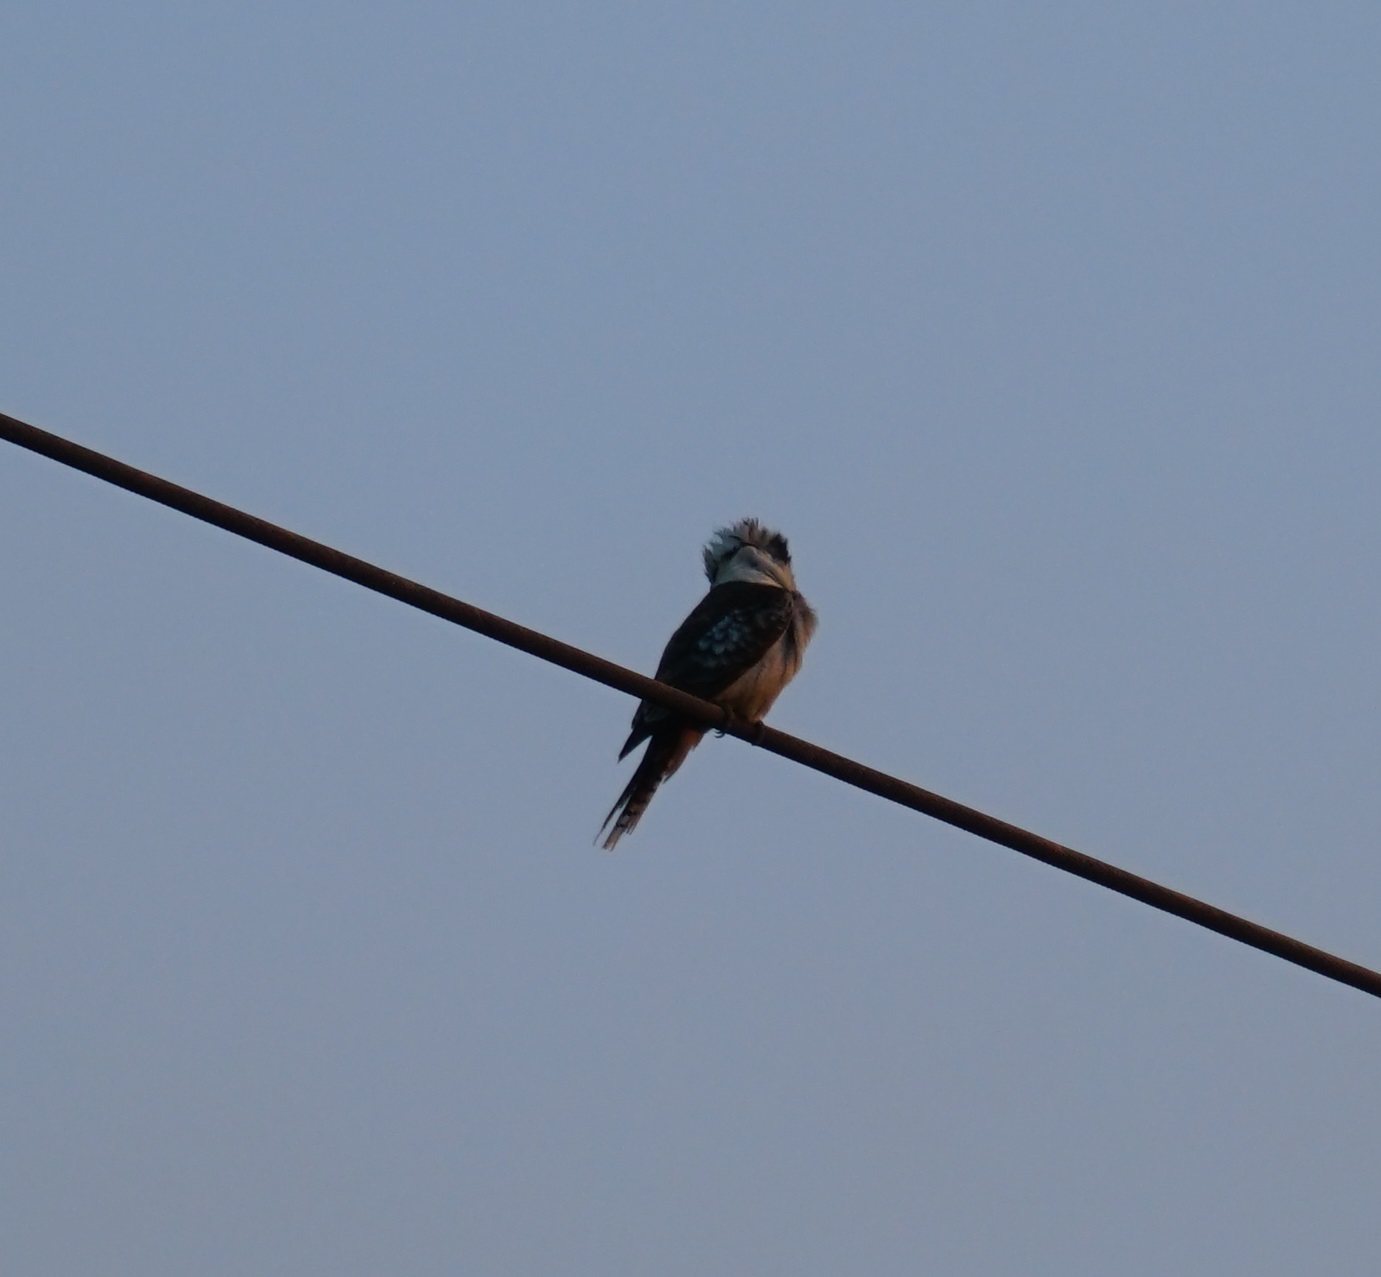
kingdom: Animalia
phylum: Chordata
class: Aves
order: Coraciiformes
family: Alcedinidae
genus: Dacelo
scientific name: Dacelo novaeguineae
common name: Laughing kookaburra
